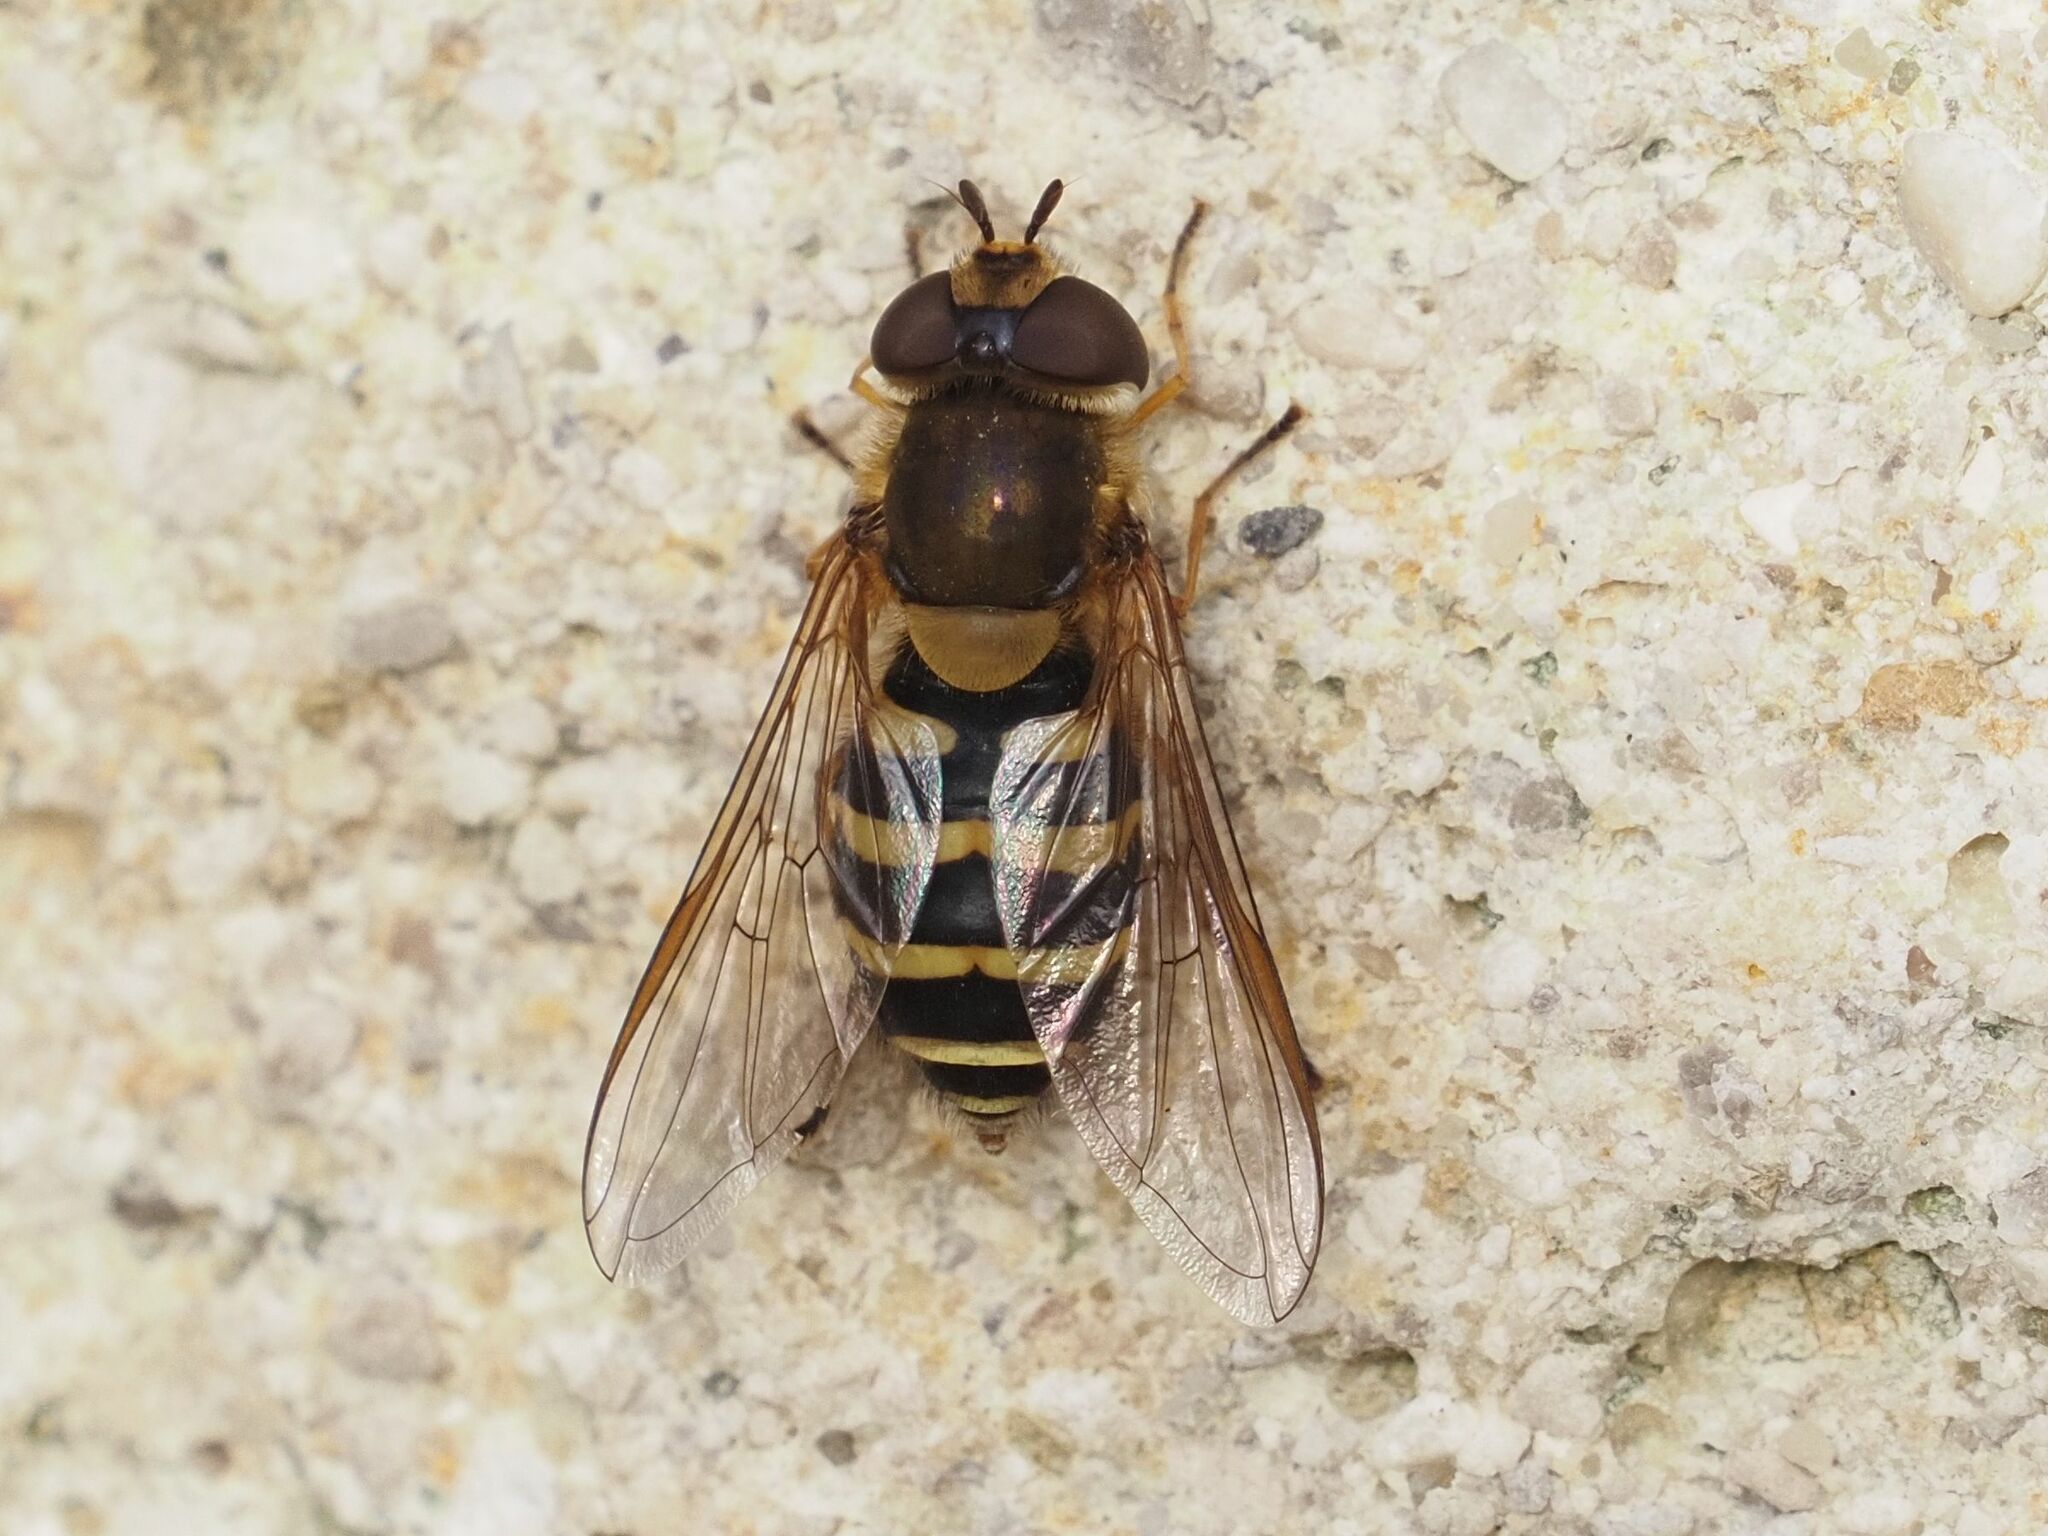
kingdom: Animalia
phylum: Arthropoda
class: Insecta
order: Diptera
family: Syrphidae
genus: Syrphus
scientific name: Syrphus
